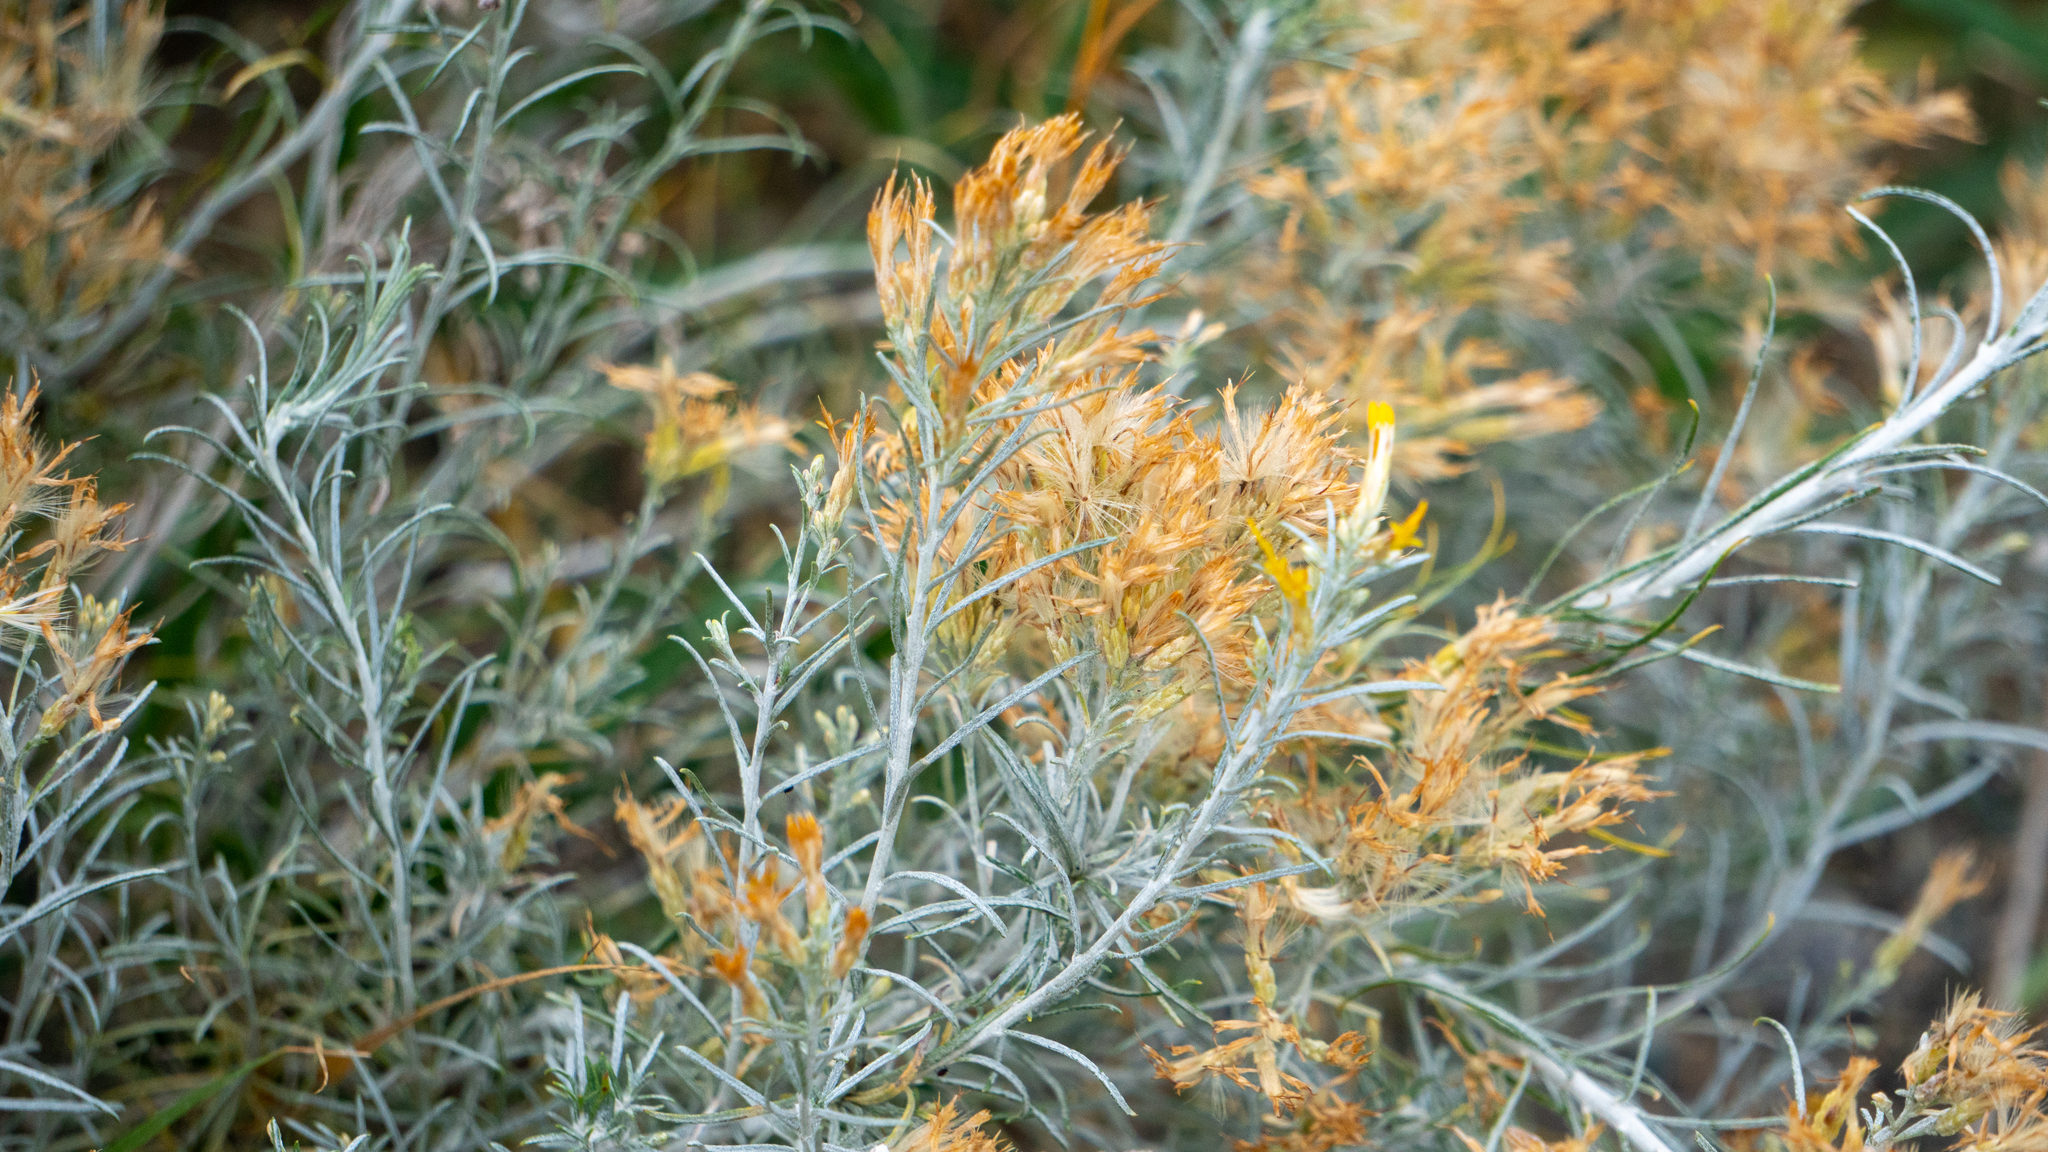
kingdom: Plantae
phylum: Tracheophyta
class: Magnoliopsida
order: Asterales
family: Asteraceae
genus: Ericameria
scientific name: Ericameria nauseosa
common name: Rubber rabbitbrush
